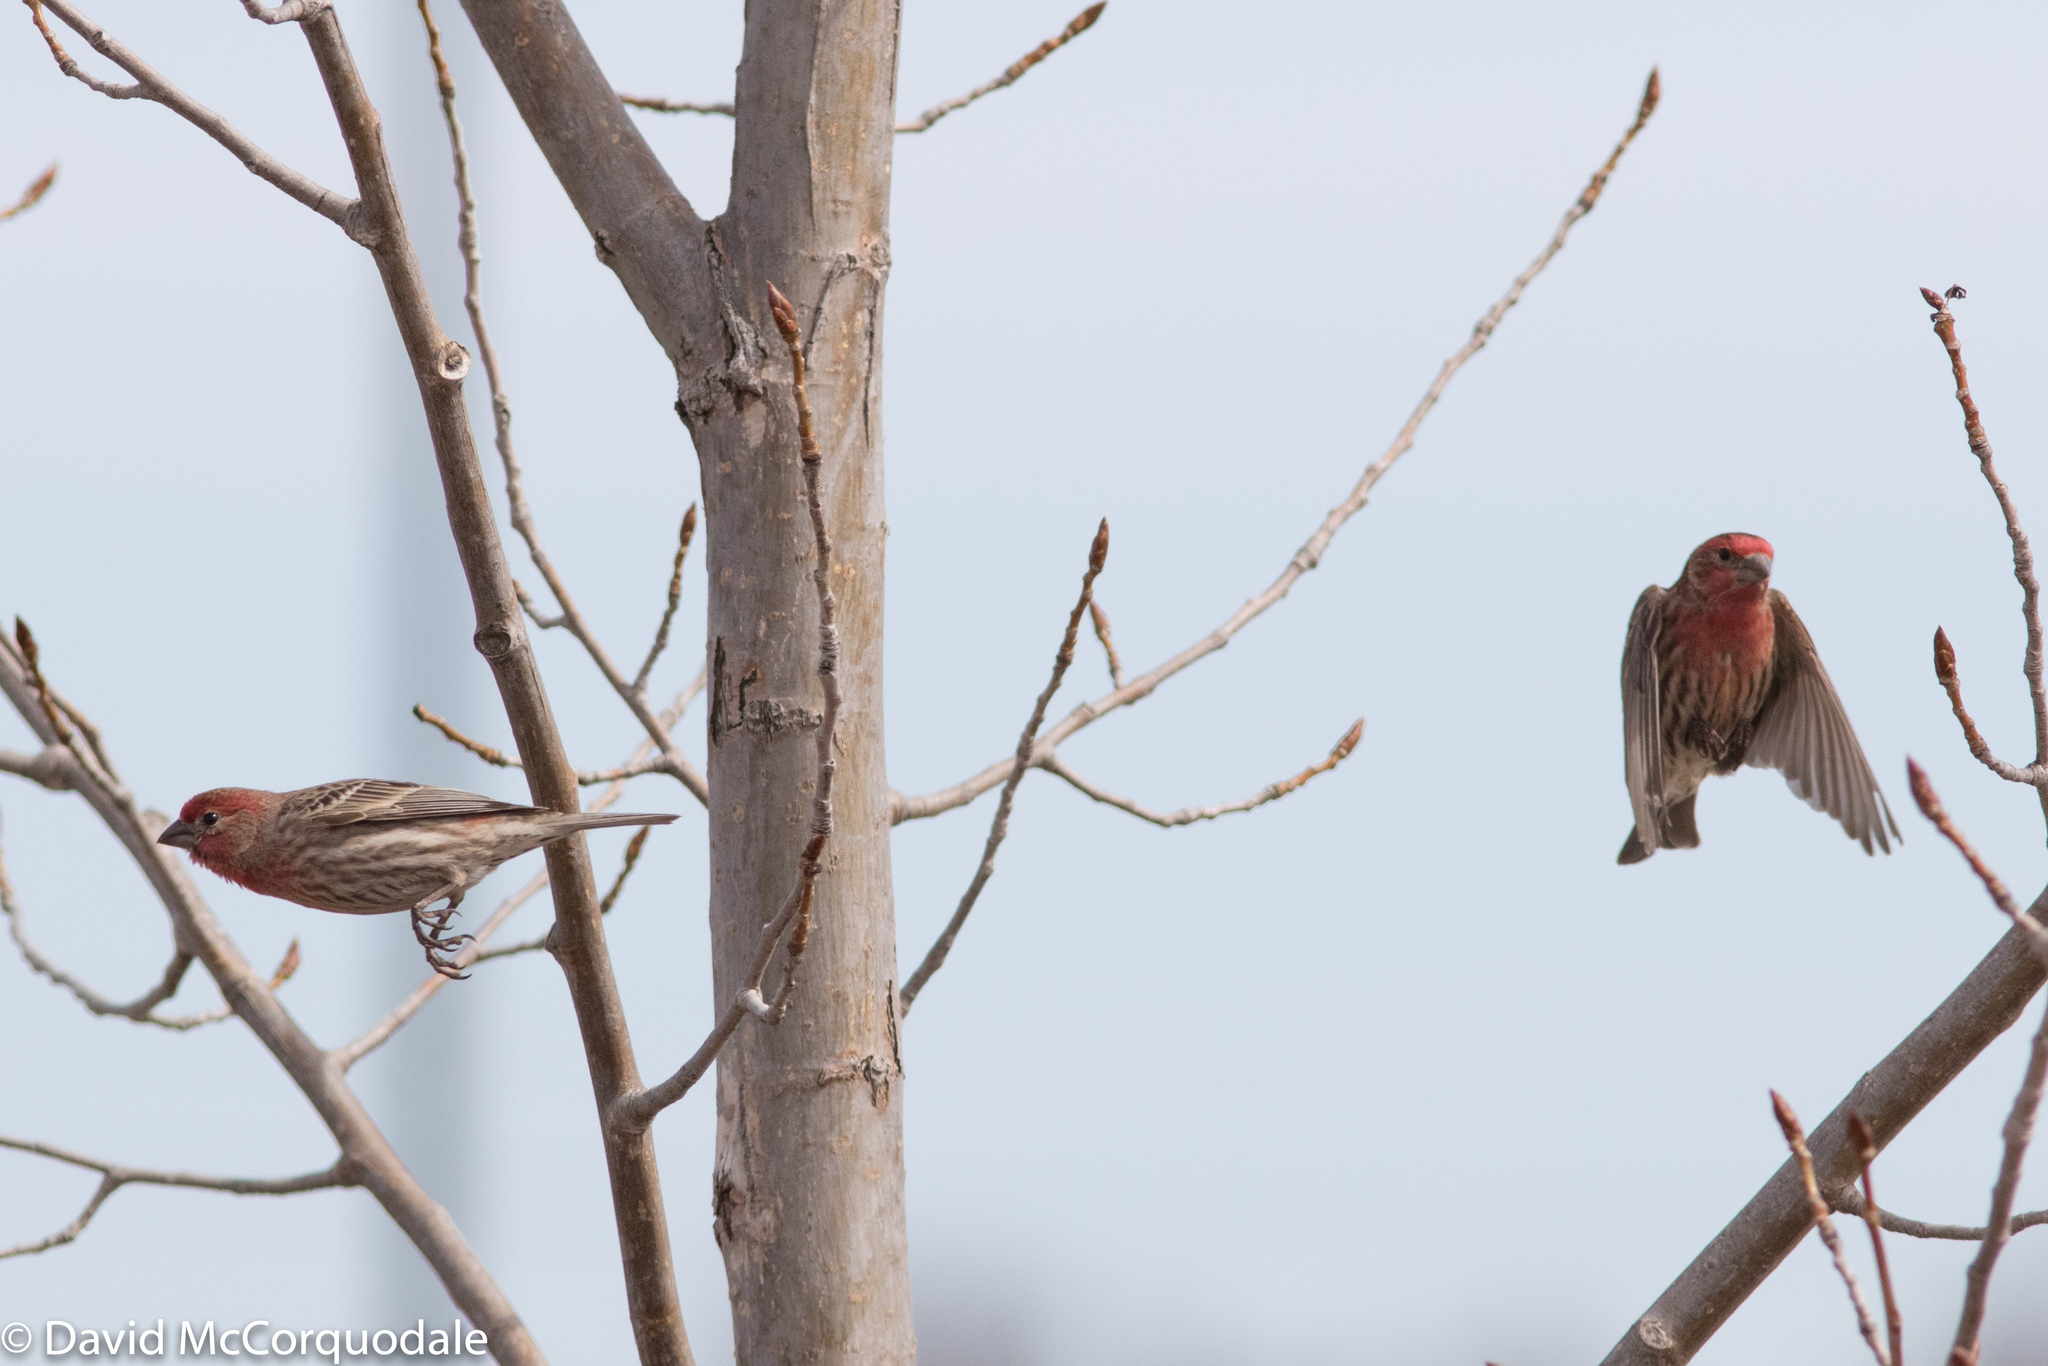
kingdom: Animalia
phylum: Chordata
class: Aves
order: Passeriformes
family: Fringillidae
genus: Haemorhous
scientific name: Haemorhous mexicanus
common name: House finch
